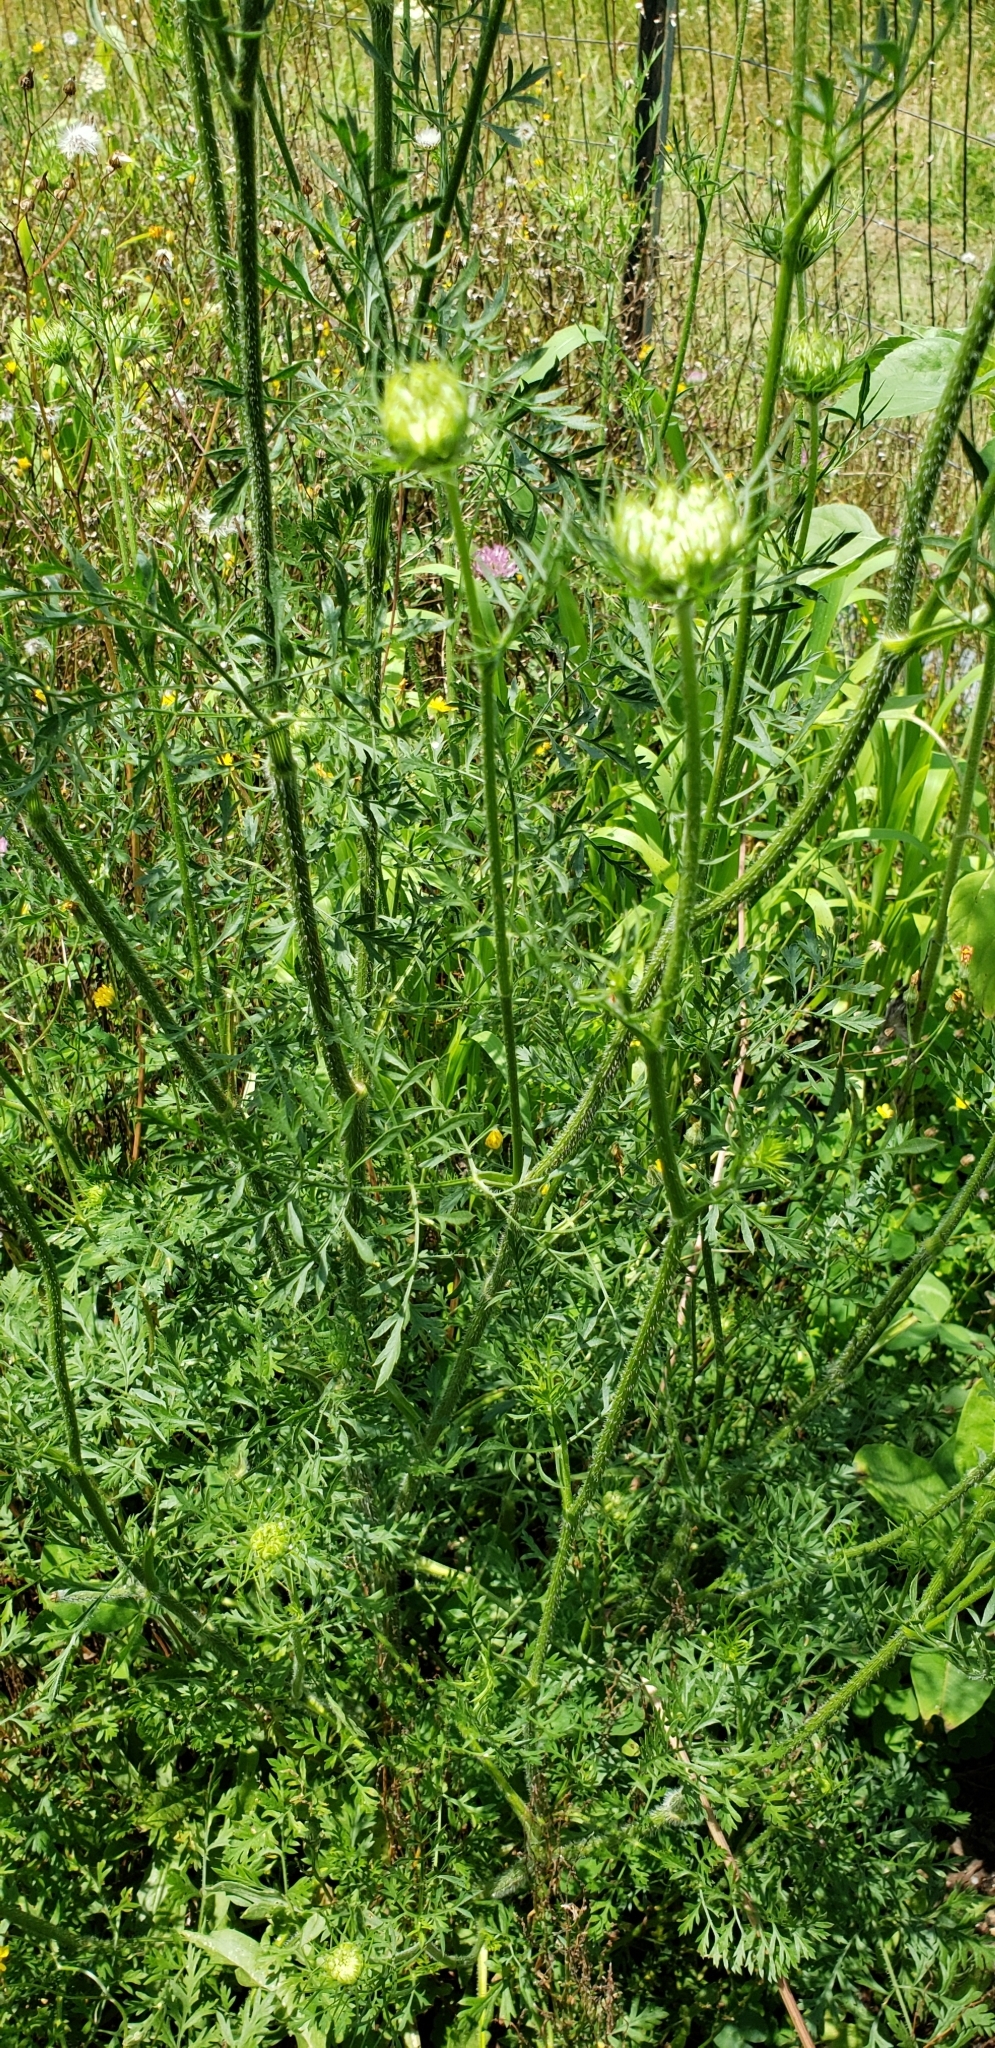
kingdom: Plantae
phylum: Tracheophyta
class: Magnoliopsida
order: Apiales
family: Apiaceae
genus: Daucus
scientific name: Daucus carota
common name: Wild carrot
